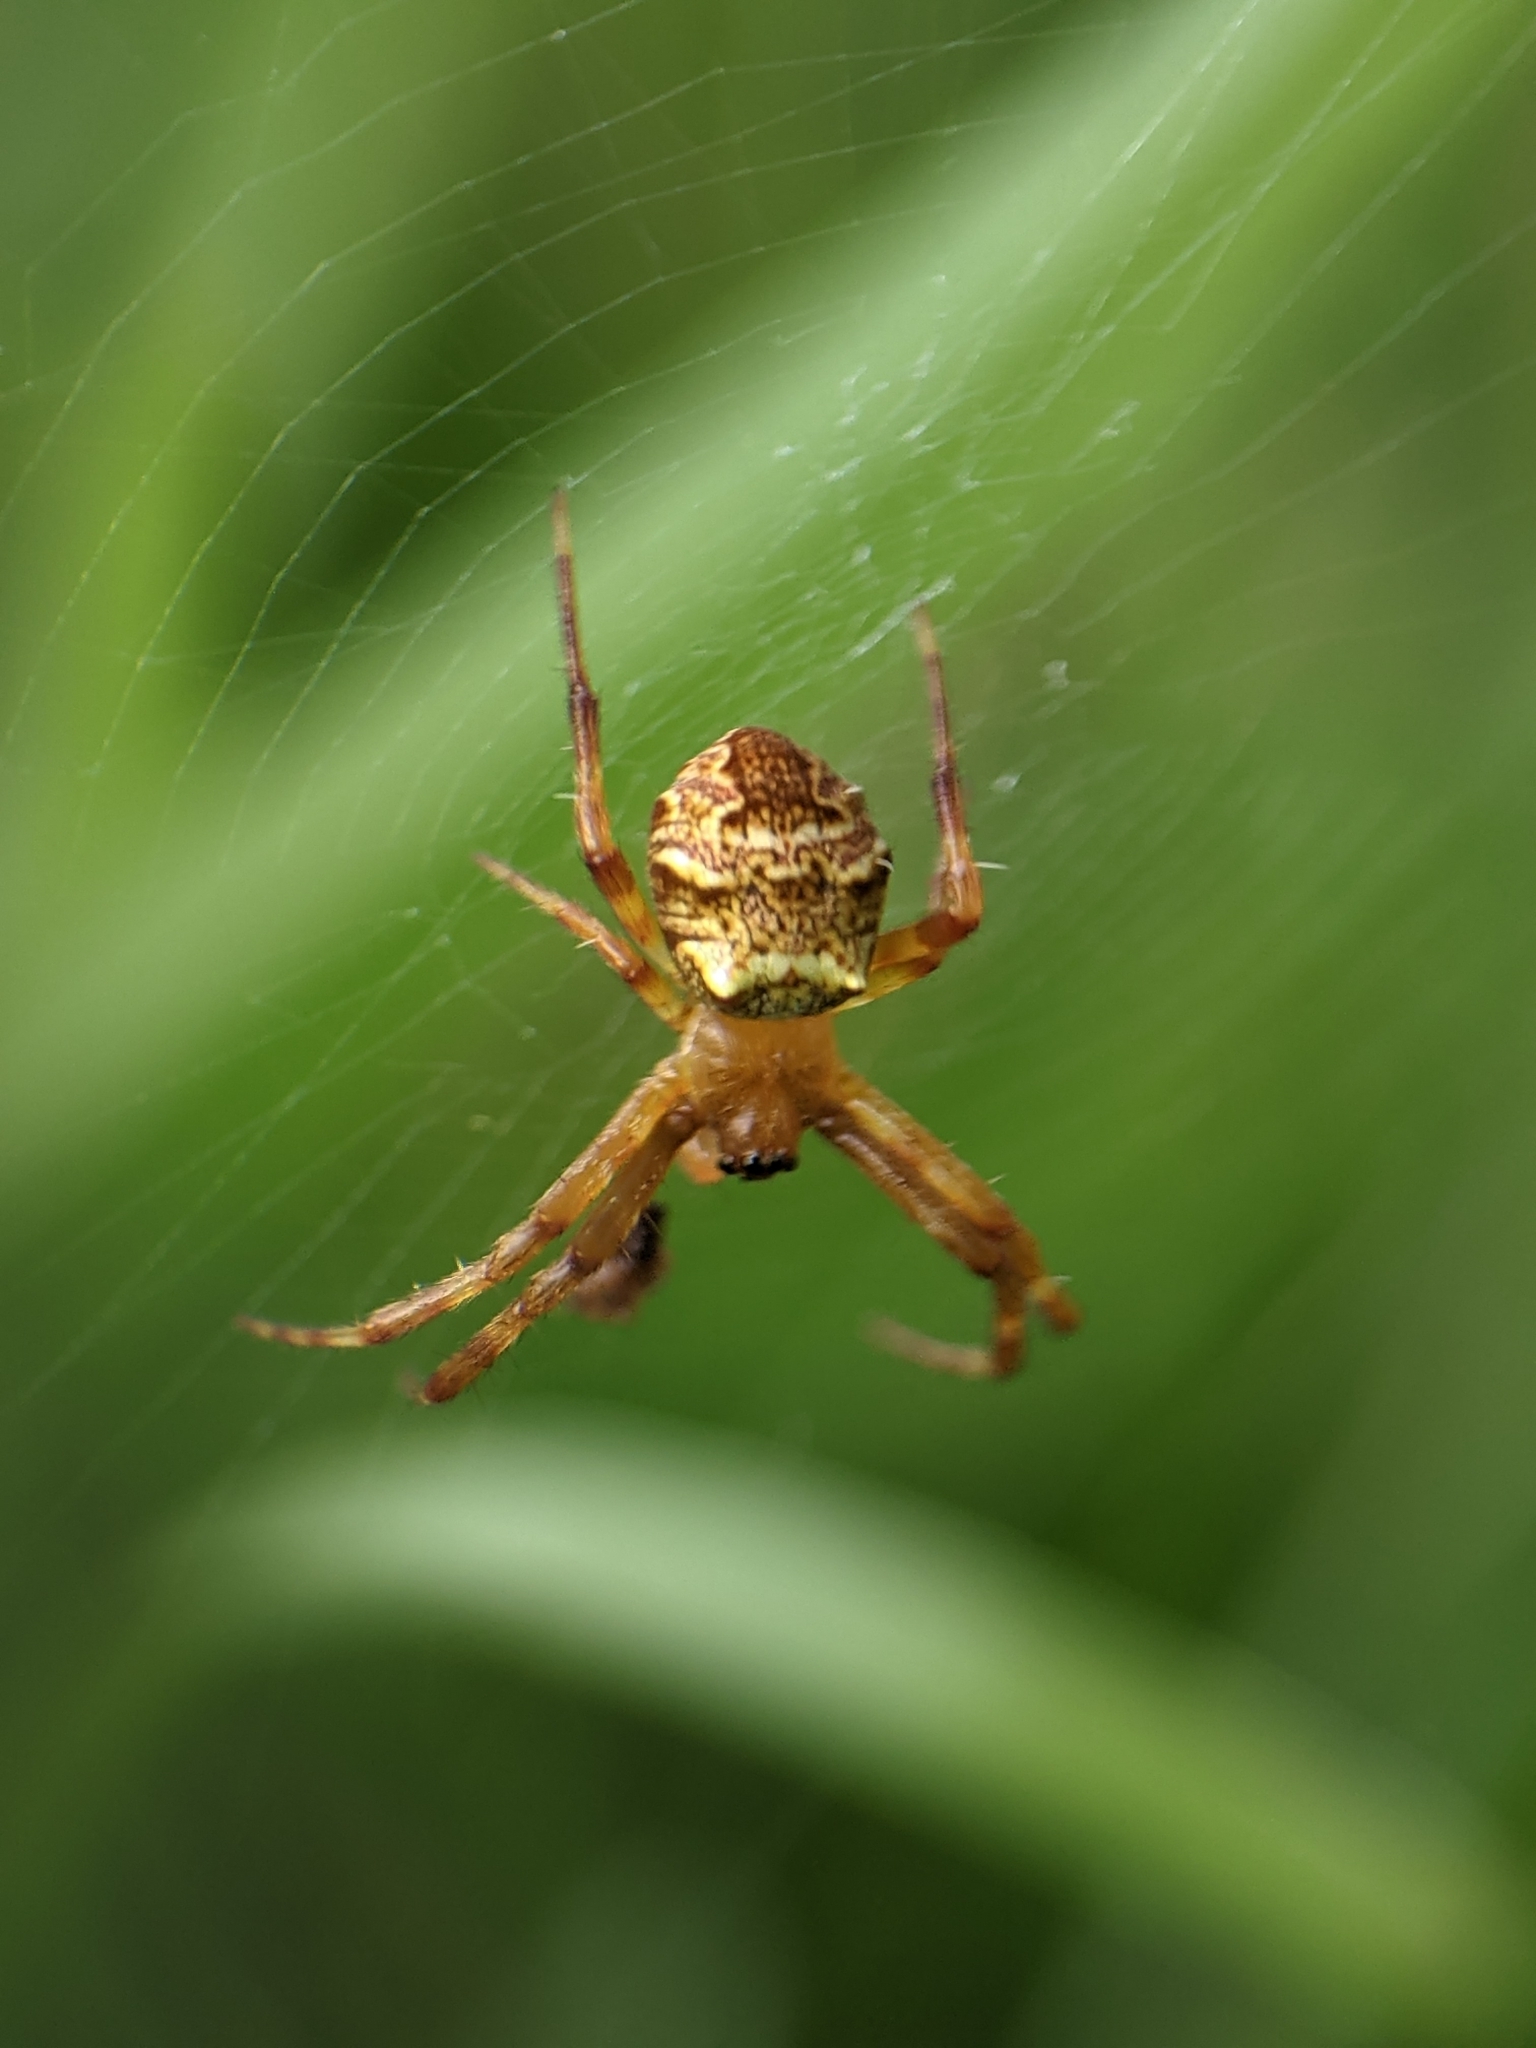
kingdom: Animalia
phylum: Arthropoda
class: Arachnida
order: Araneae
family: Araneidae
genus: Gea
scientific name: Gea heptagon
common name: Orb weavers
